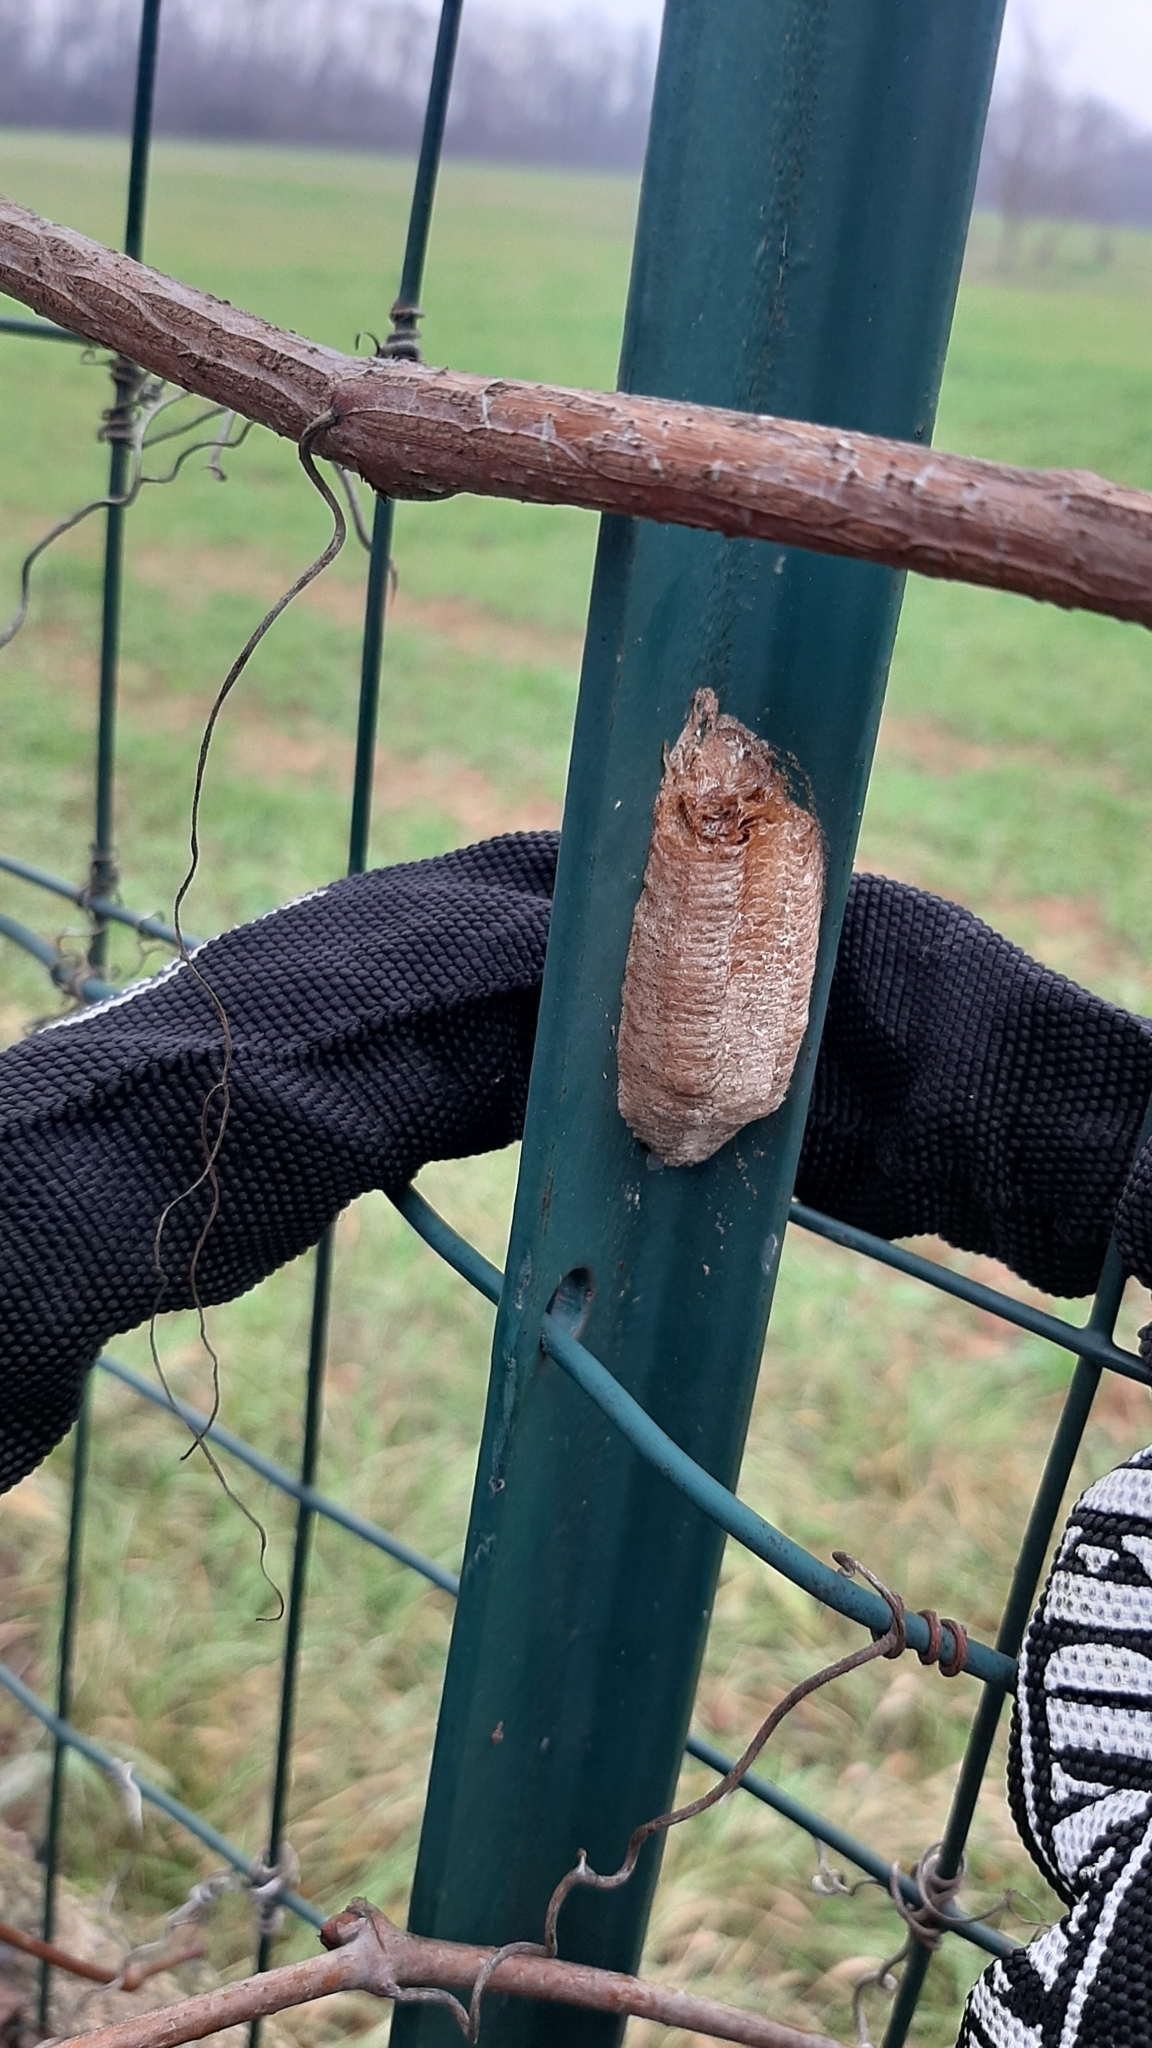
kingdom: Animalia
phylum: Arthropoda
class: Insecta
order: Mantodea
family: Mantidae
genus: Mantis
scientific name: Mantis religiosa
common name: Praying mantis
